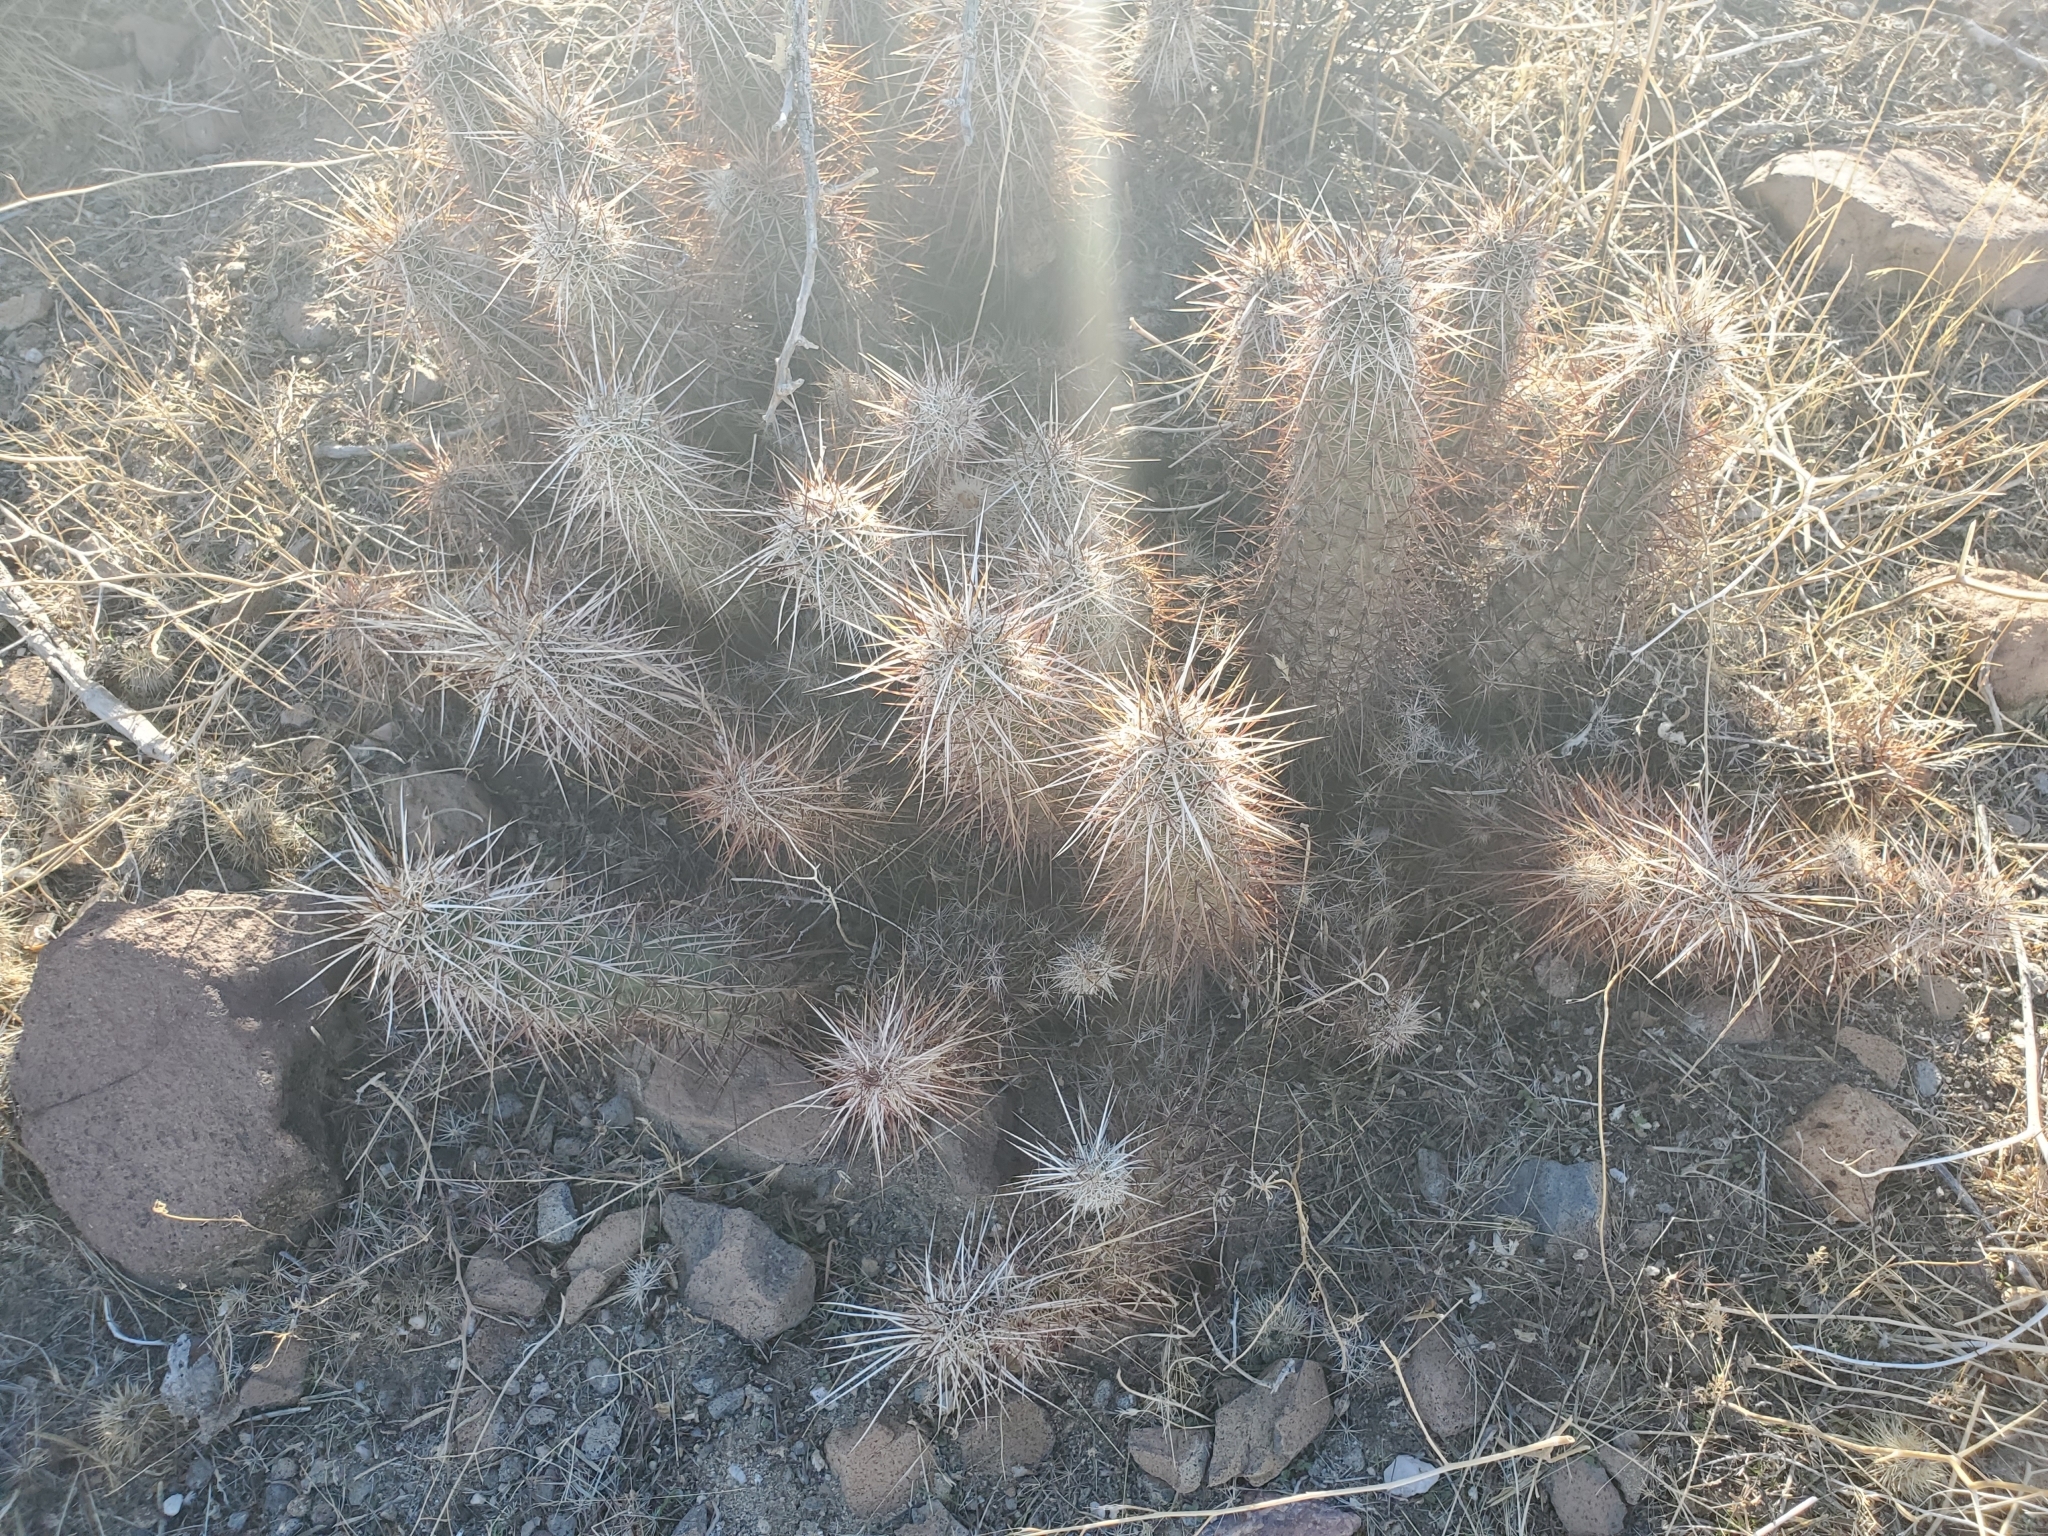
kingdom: Plantae
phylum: Tracheophyta
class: Magnoliopsida
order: Caryophyllales
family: Cactaceae
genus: Echinocereus
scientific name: Echinocereus engelmannii
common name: Engelmann's hedgehog cactus
